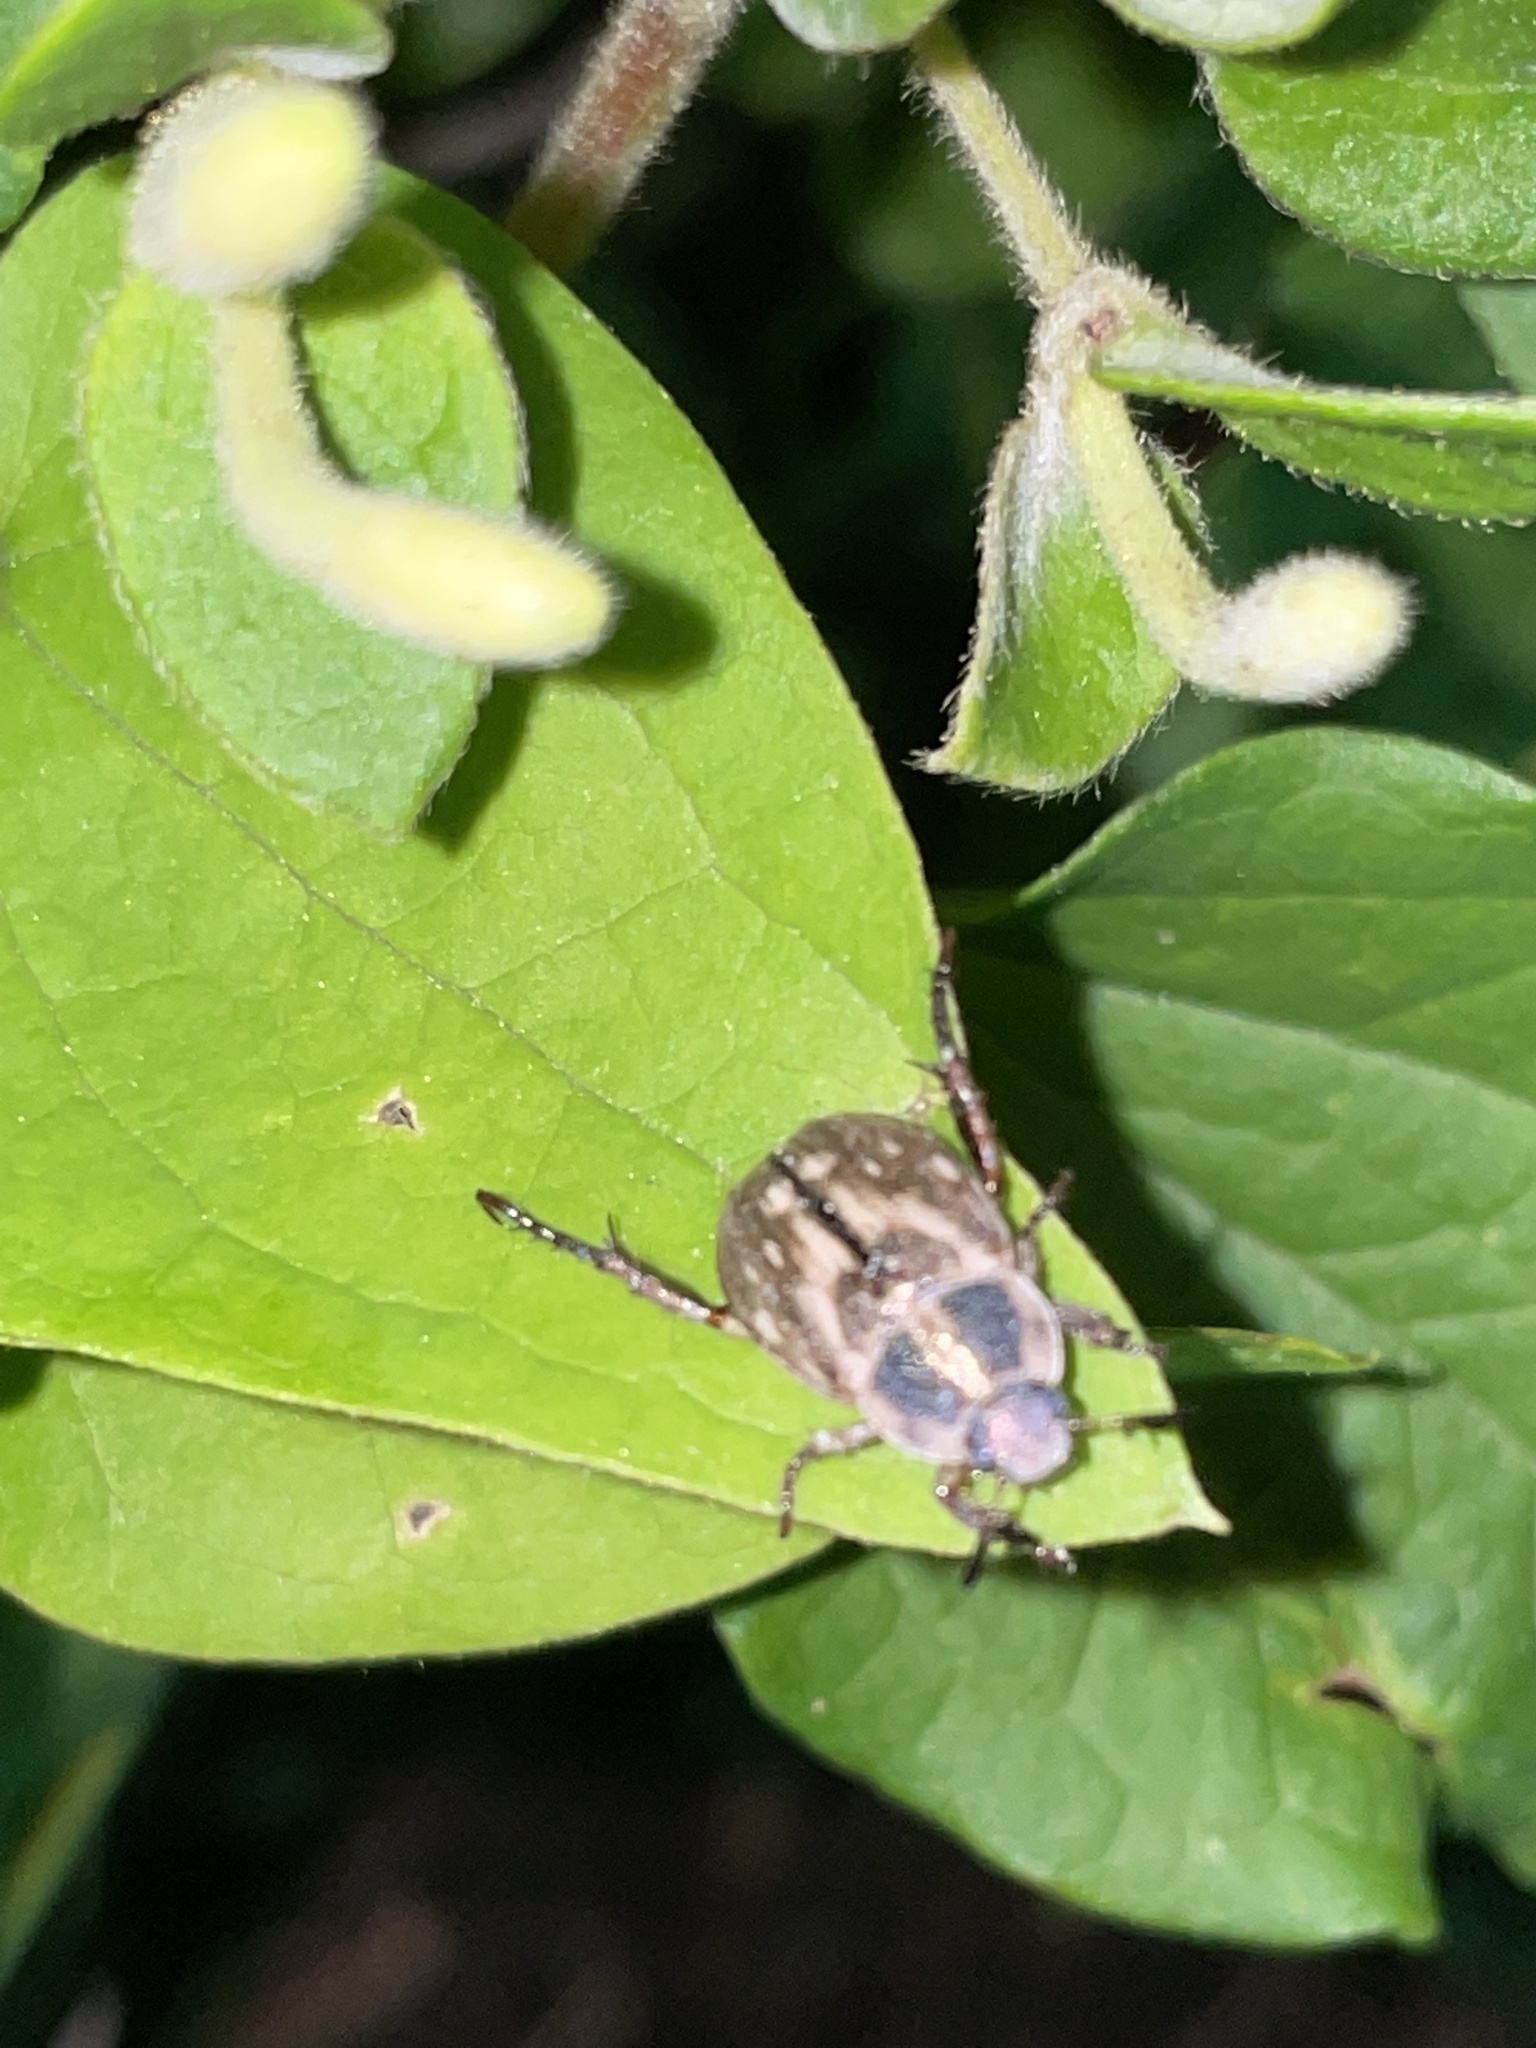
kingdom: Animalia
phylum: Arthropoda
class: Insecta
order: Coleoptera
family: Scarabaeidae
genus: Exomala
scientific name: Exomala orientalis
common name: Oriental beetle
